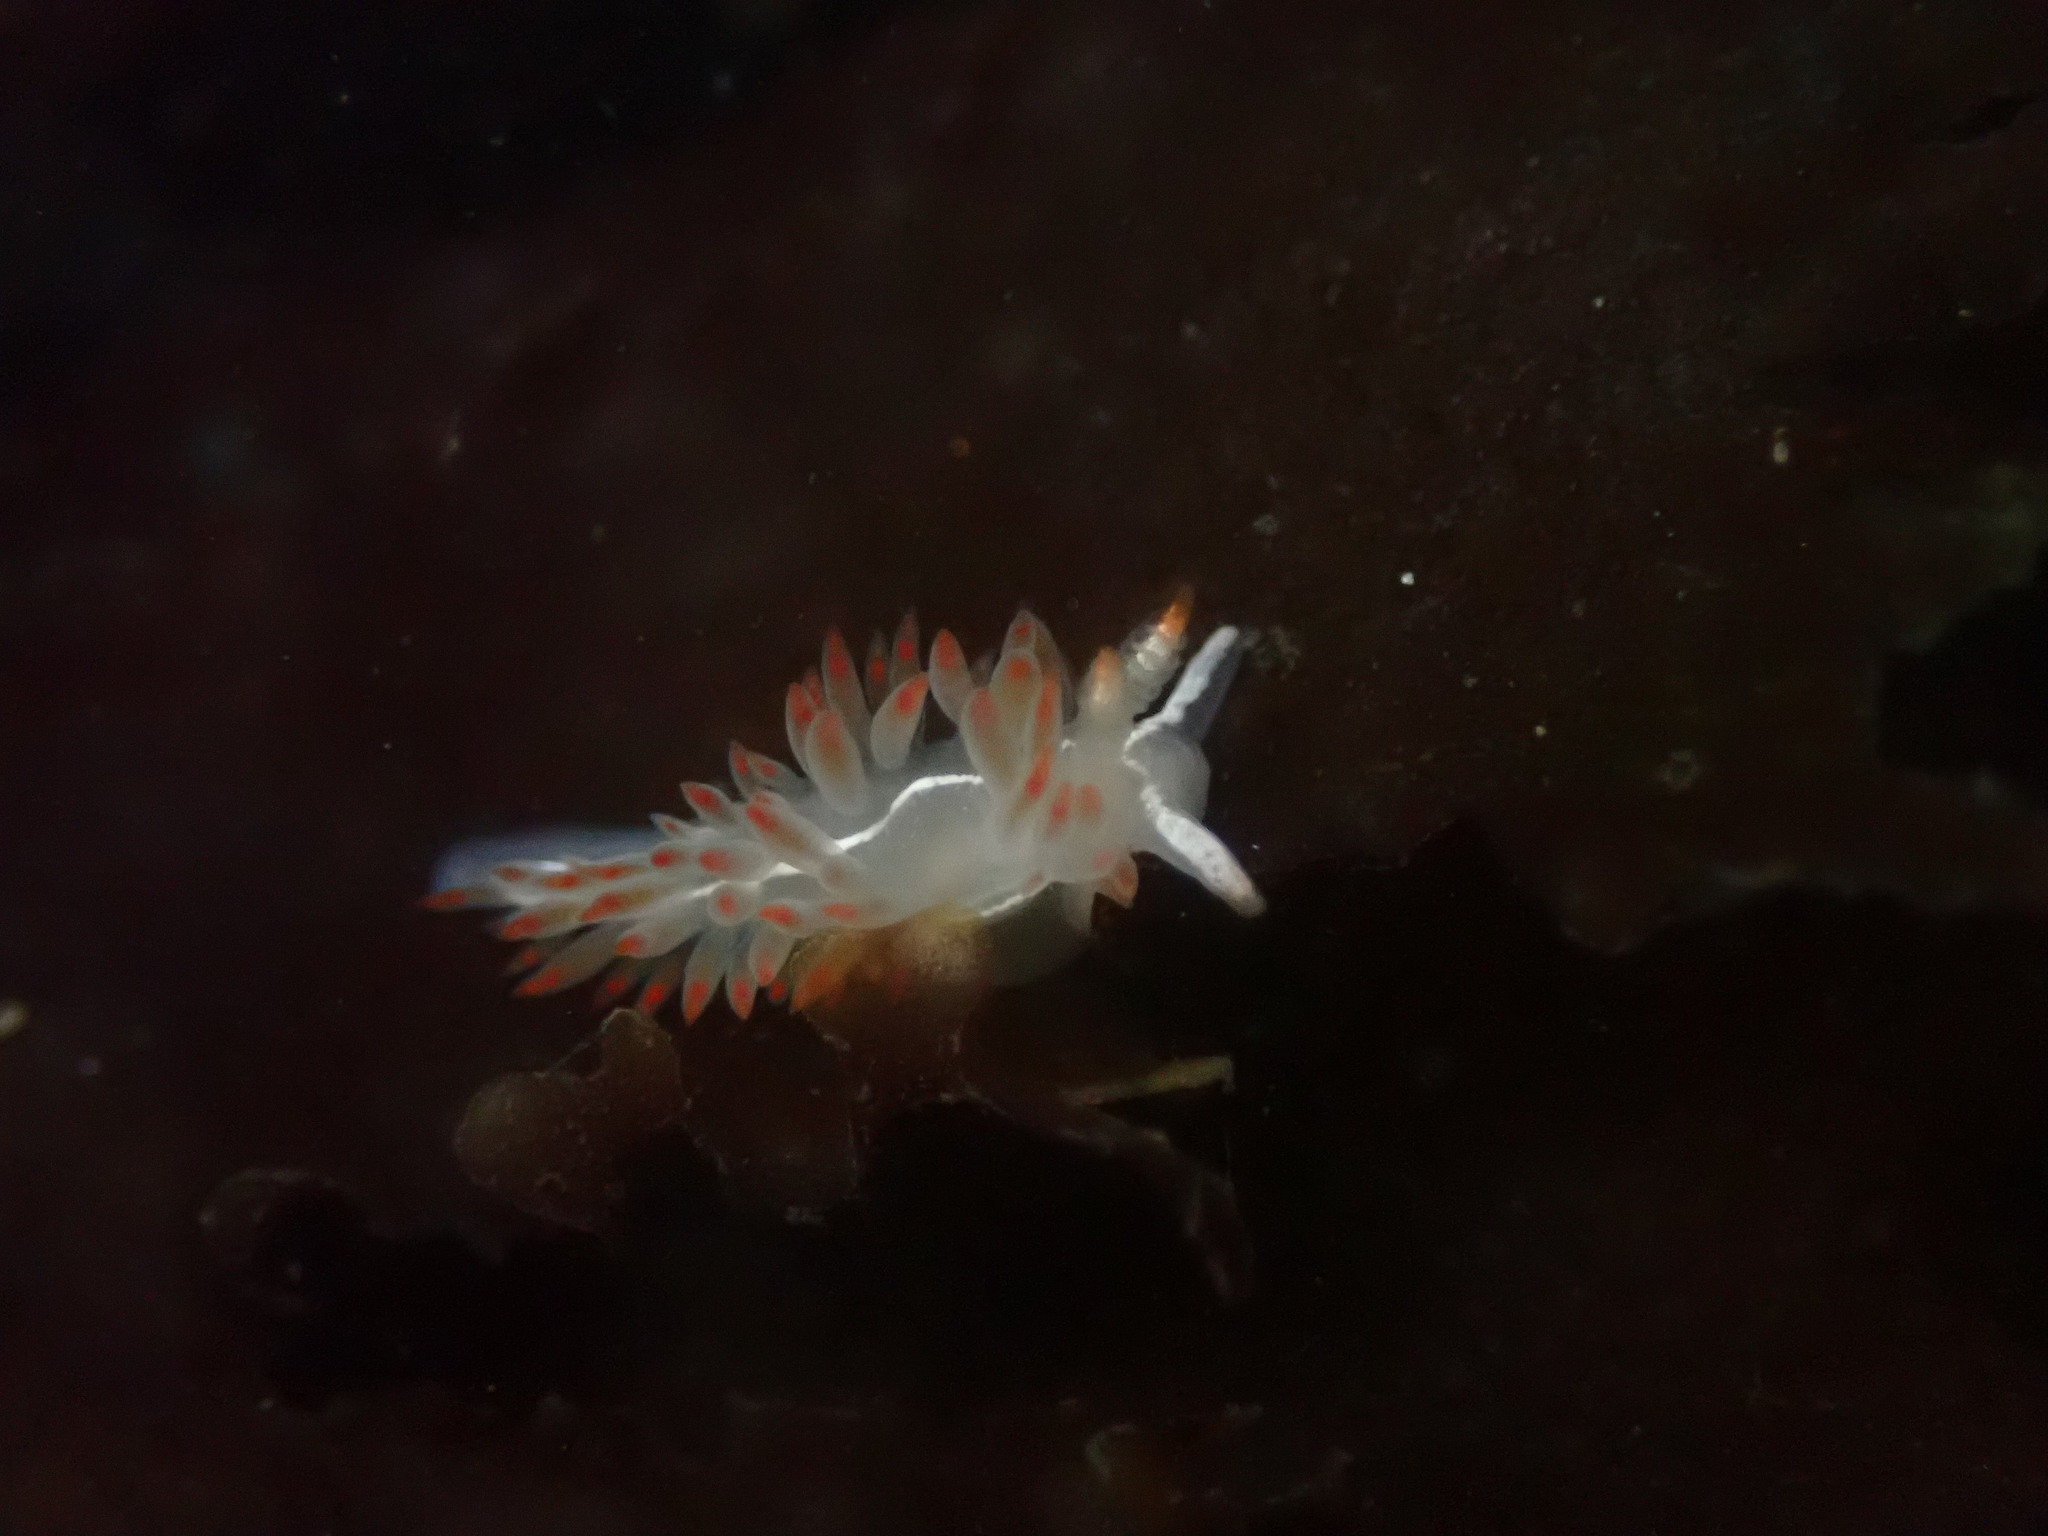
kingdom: Animalia
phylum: Mollusca
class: Gastropoda
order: Nudibranchia
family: Coryphellidae
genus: Coryphella
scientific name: Coryphella trilineata
